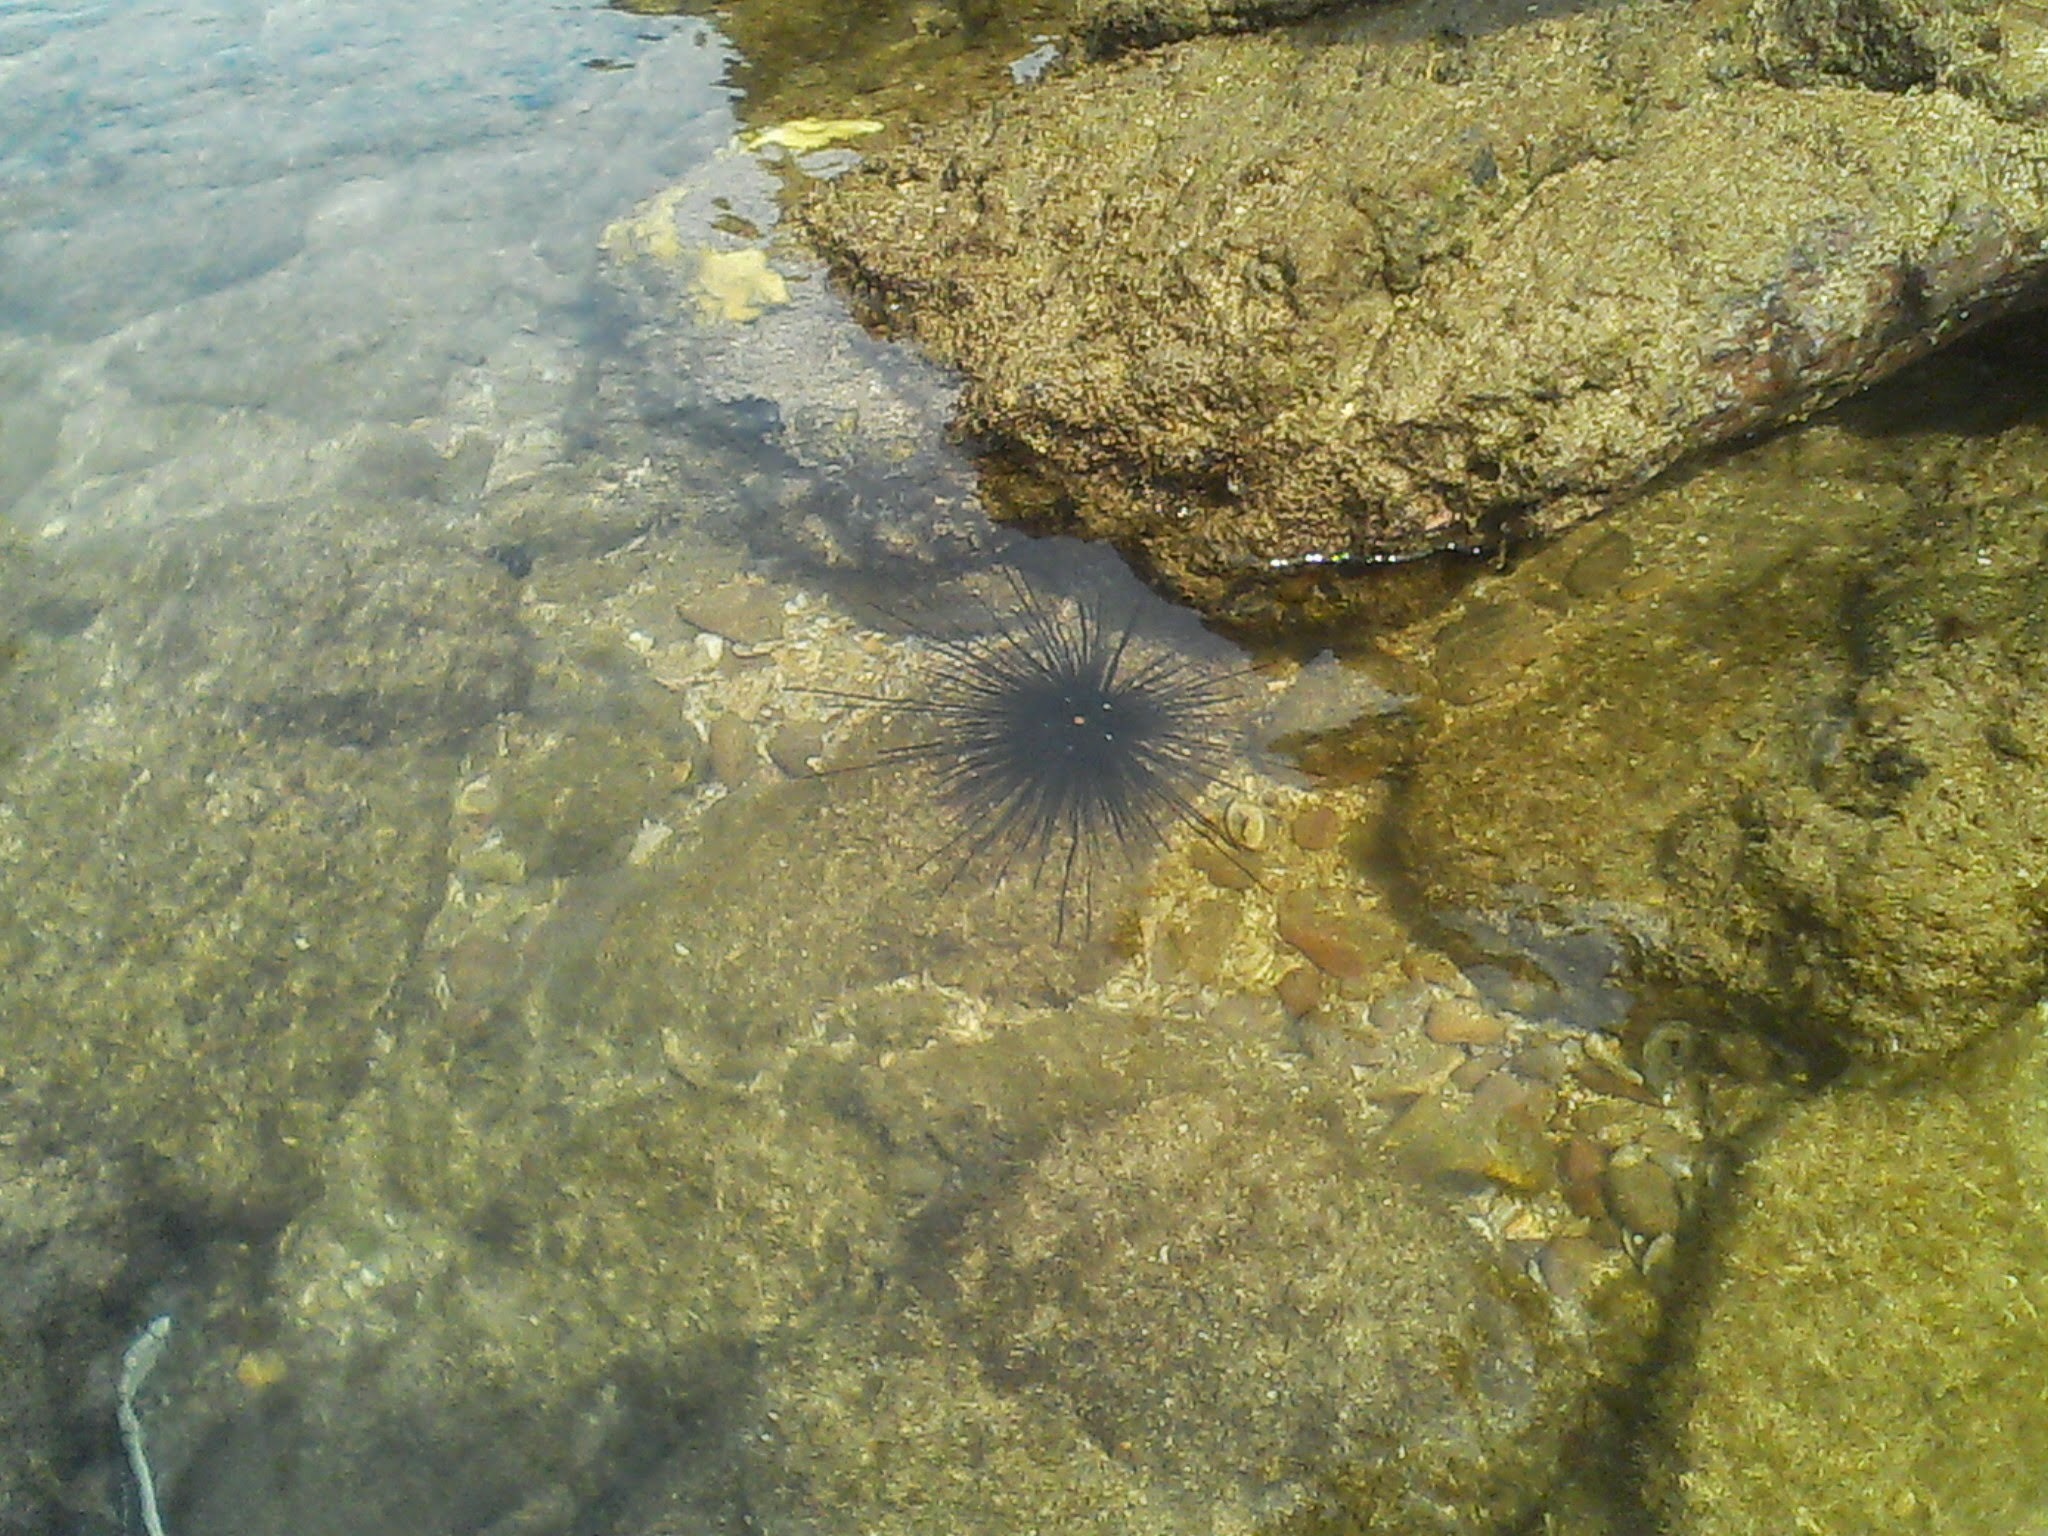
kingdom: Animalia
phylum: Echinodermata
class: Echinoidea
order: Diadematoida
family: Diadematidae
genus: Diadema
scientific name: Diadema setosum
